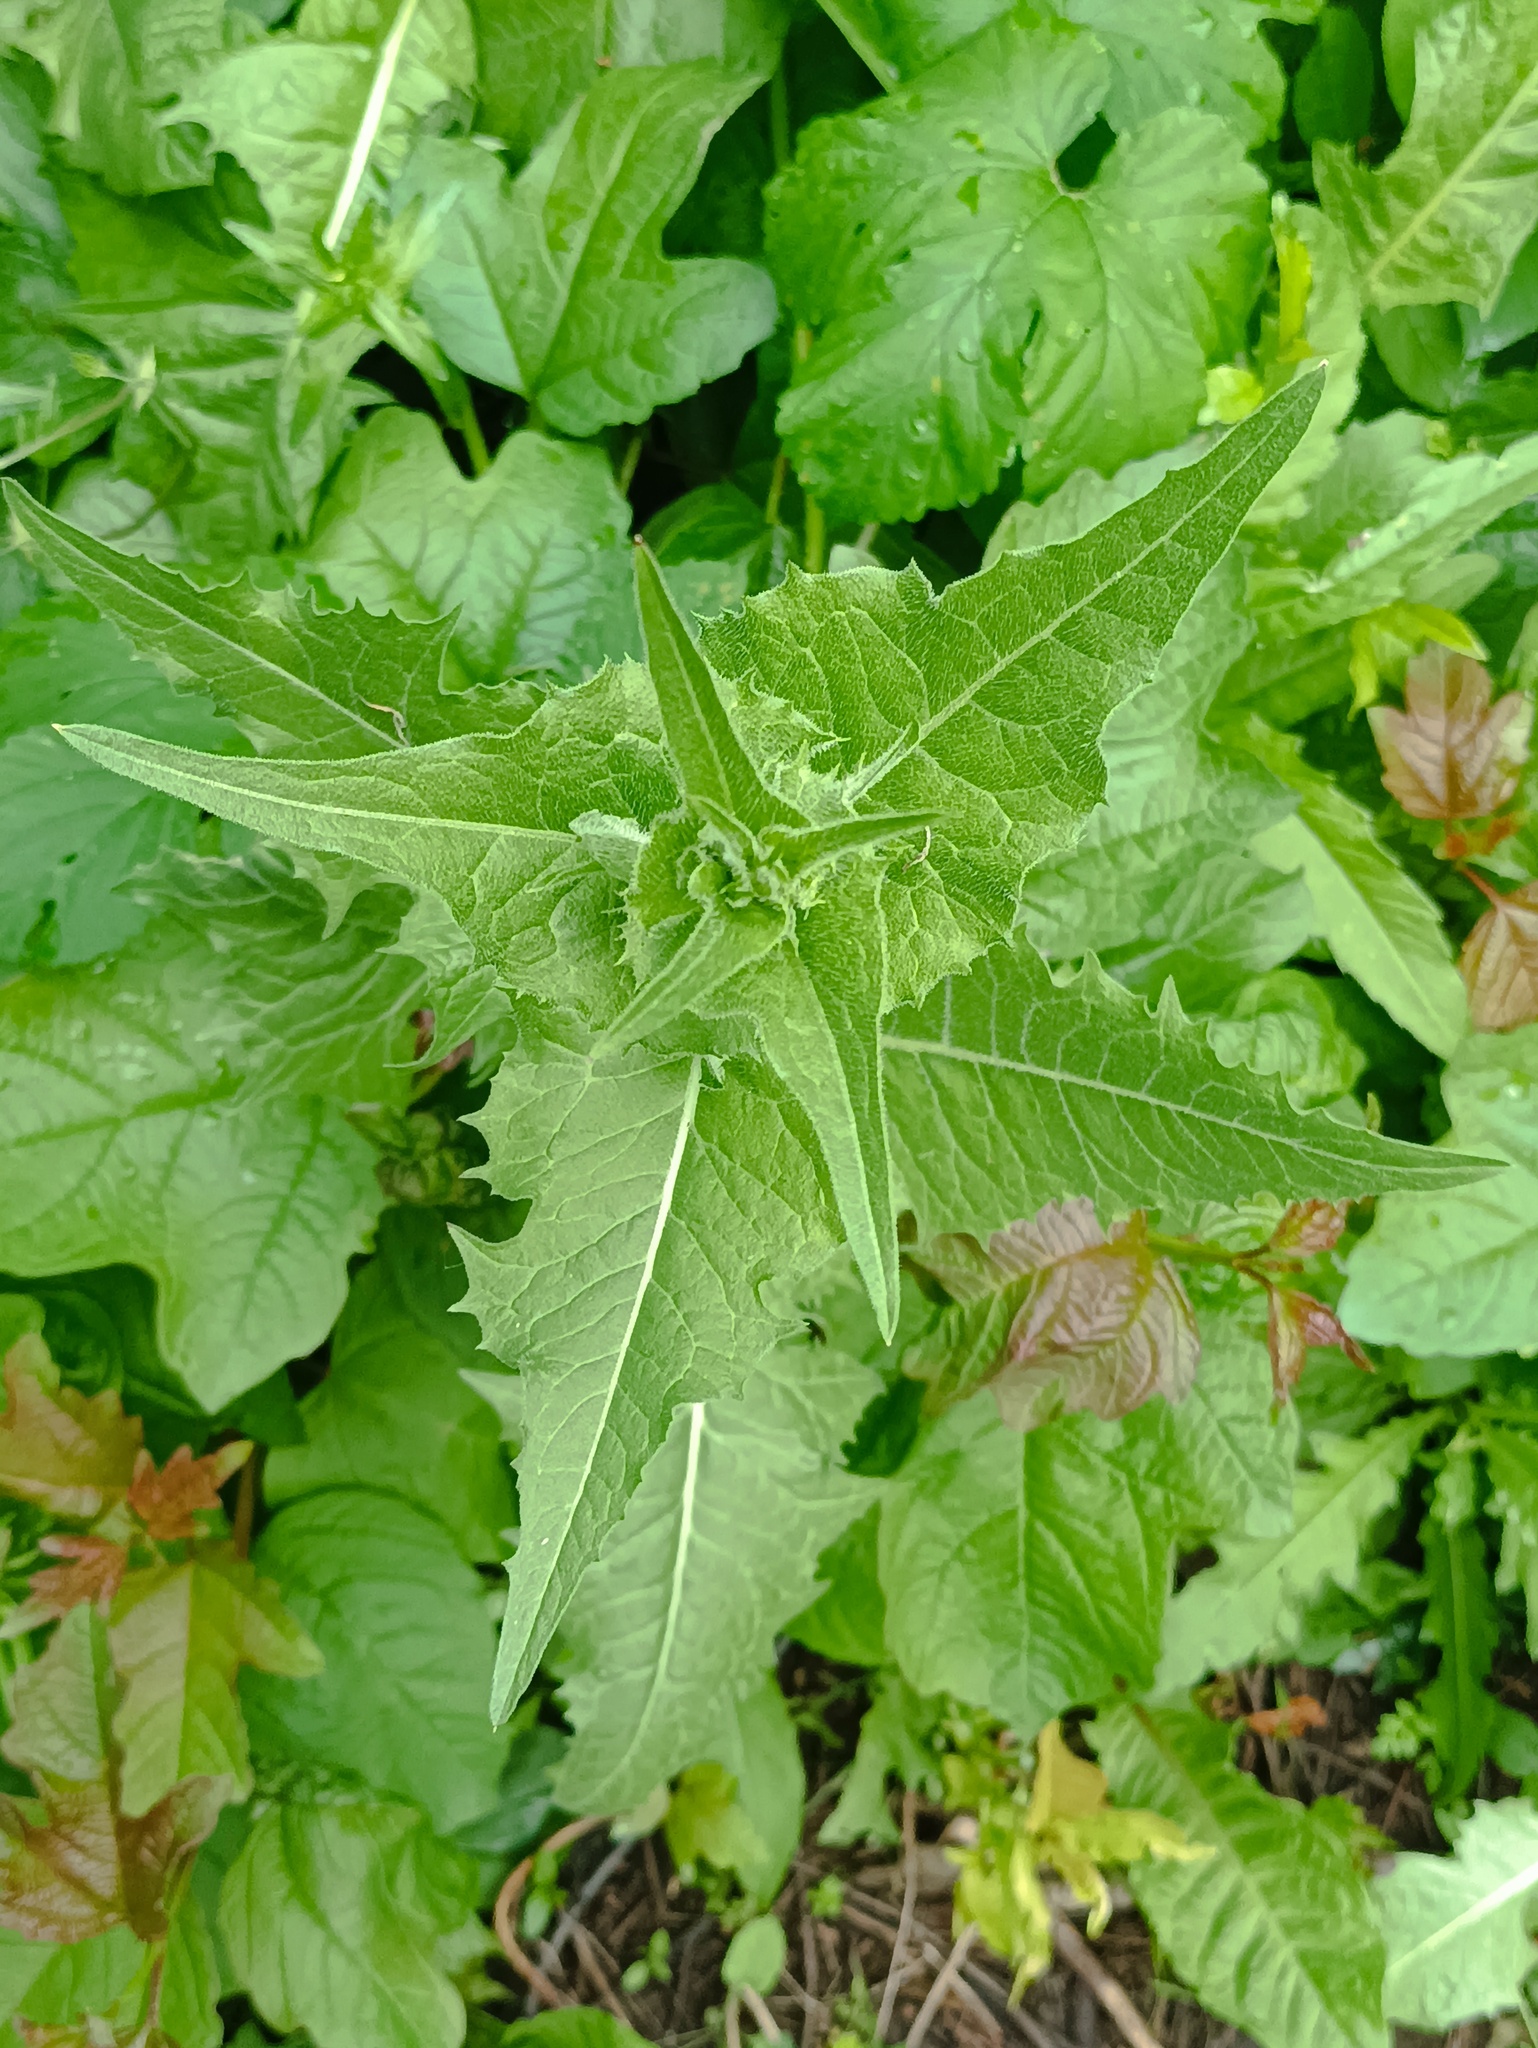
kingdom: Plantae
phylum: Tracheophyta
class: Magnoliopsida
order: Asterales
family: Asteraceae
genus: Cichorium
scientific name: Cichorium intybus
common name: Chicory
